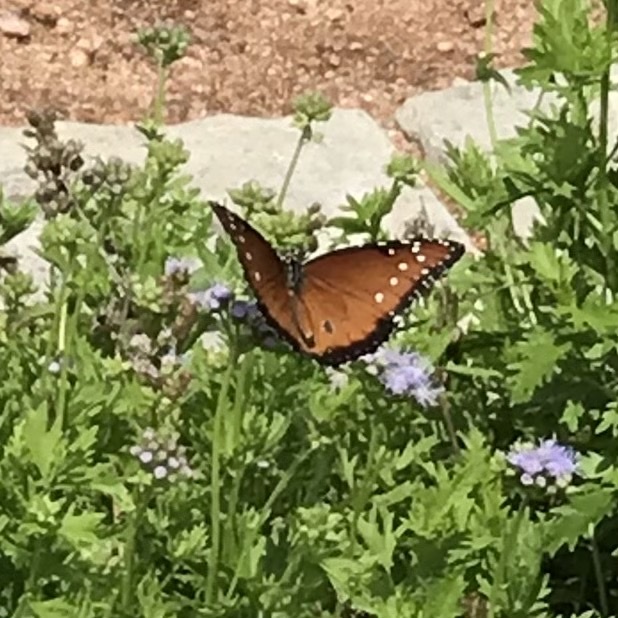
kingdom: Animalia
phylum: Arthropoda
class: Insecta
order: Lepidoptera
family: Nymphalidae
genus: Danaus
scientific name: Danaus gilippus
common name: Queen
